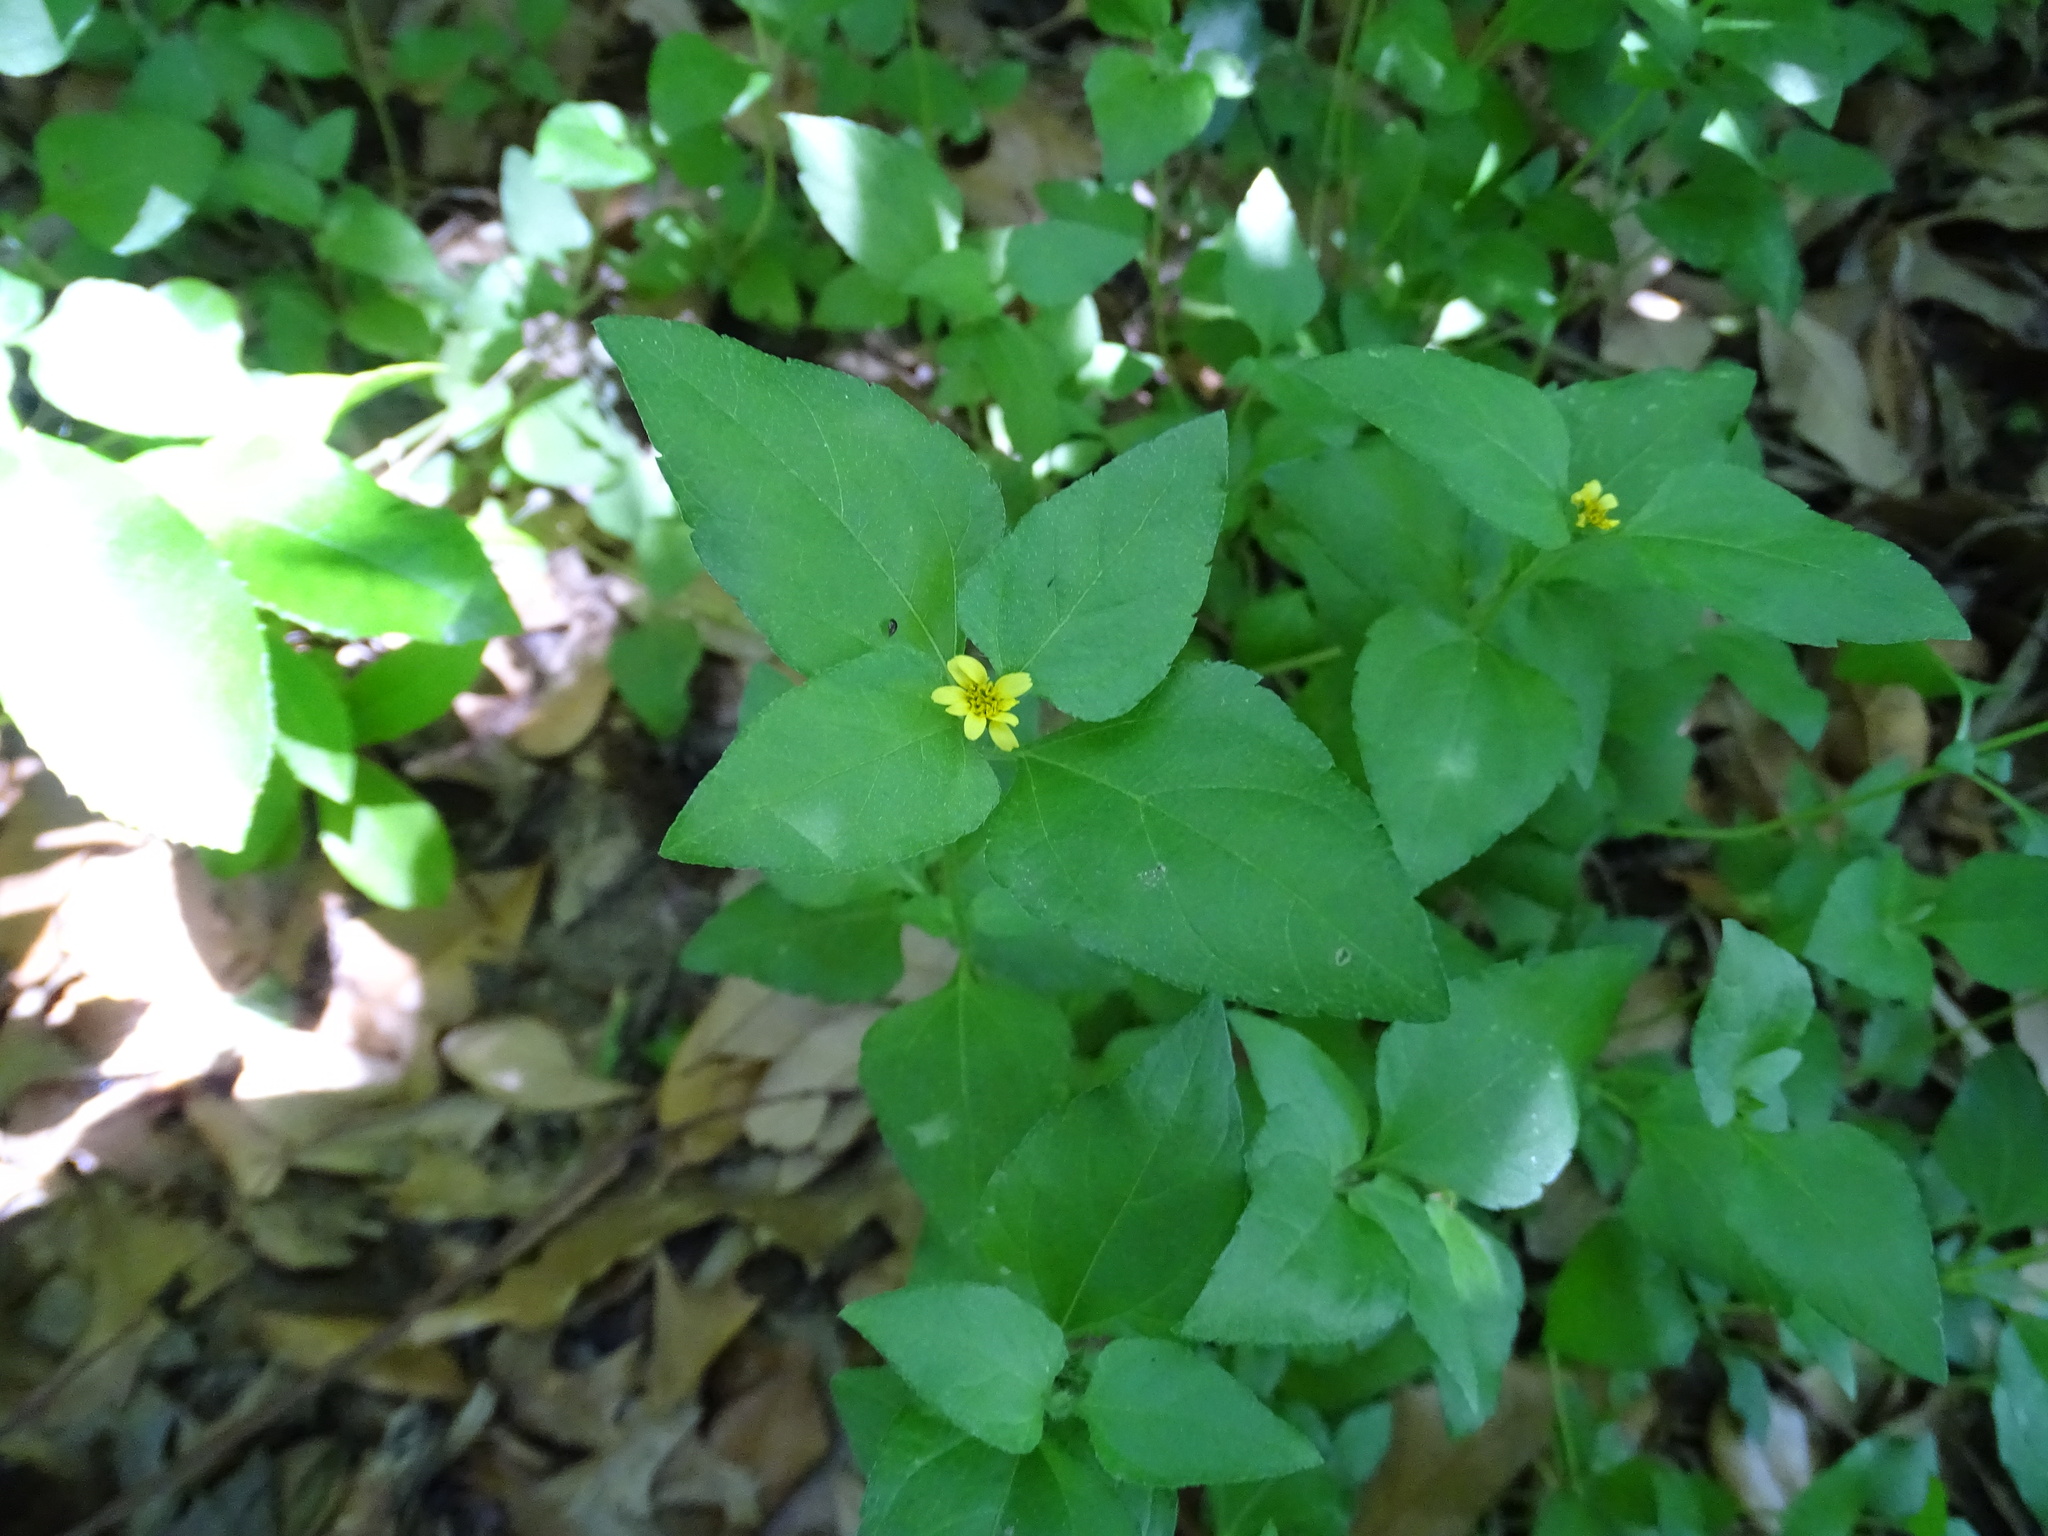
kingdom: Plantae
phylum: Tracheophyta
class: Magnoliopsida
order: Asterales
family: Asteraceae
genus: Calyptocarpus
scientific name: Calyptocarpus vialis
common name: Straggler daisy
